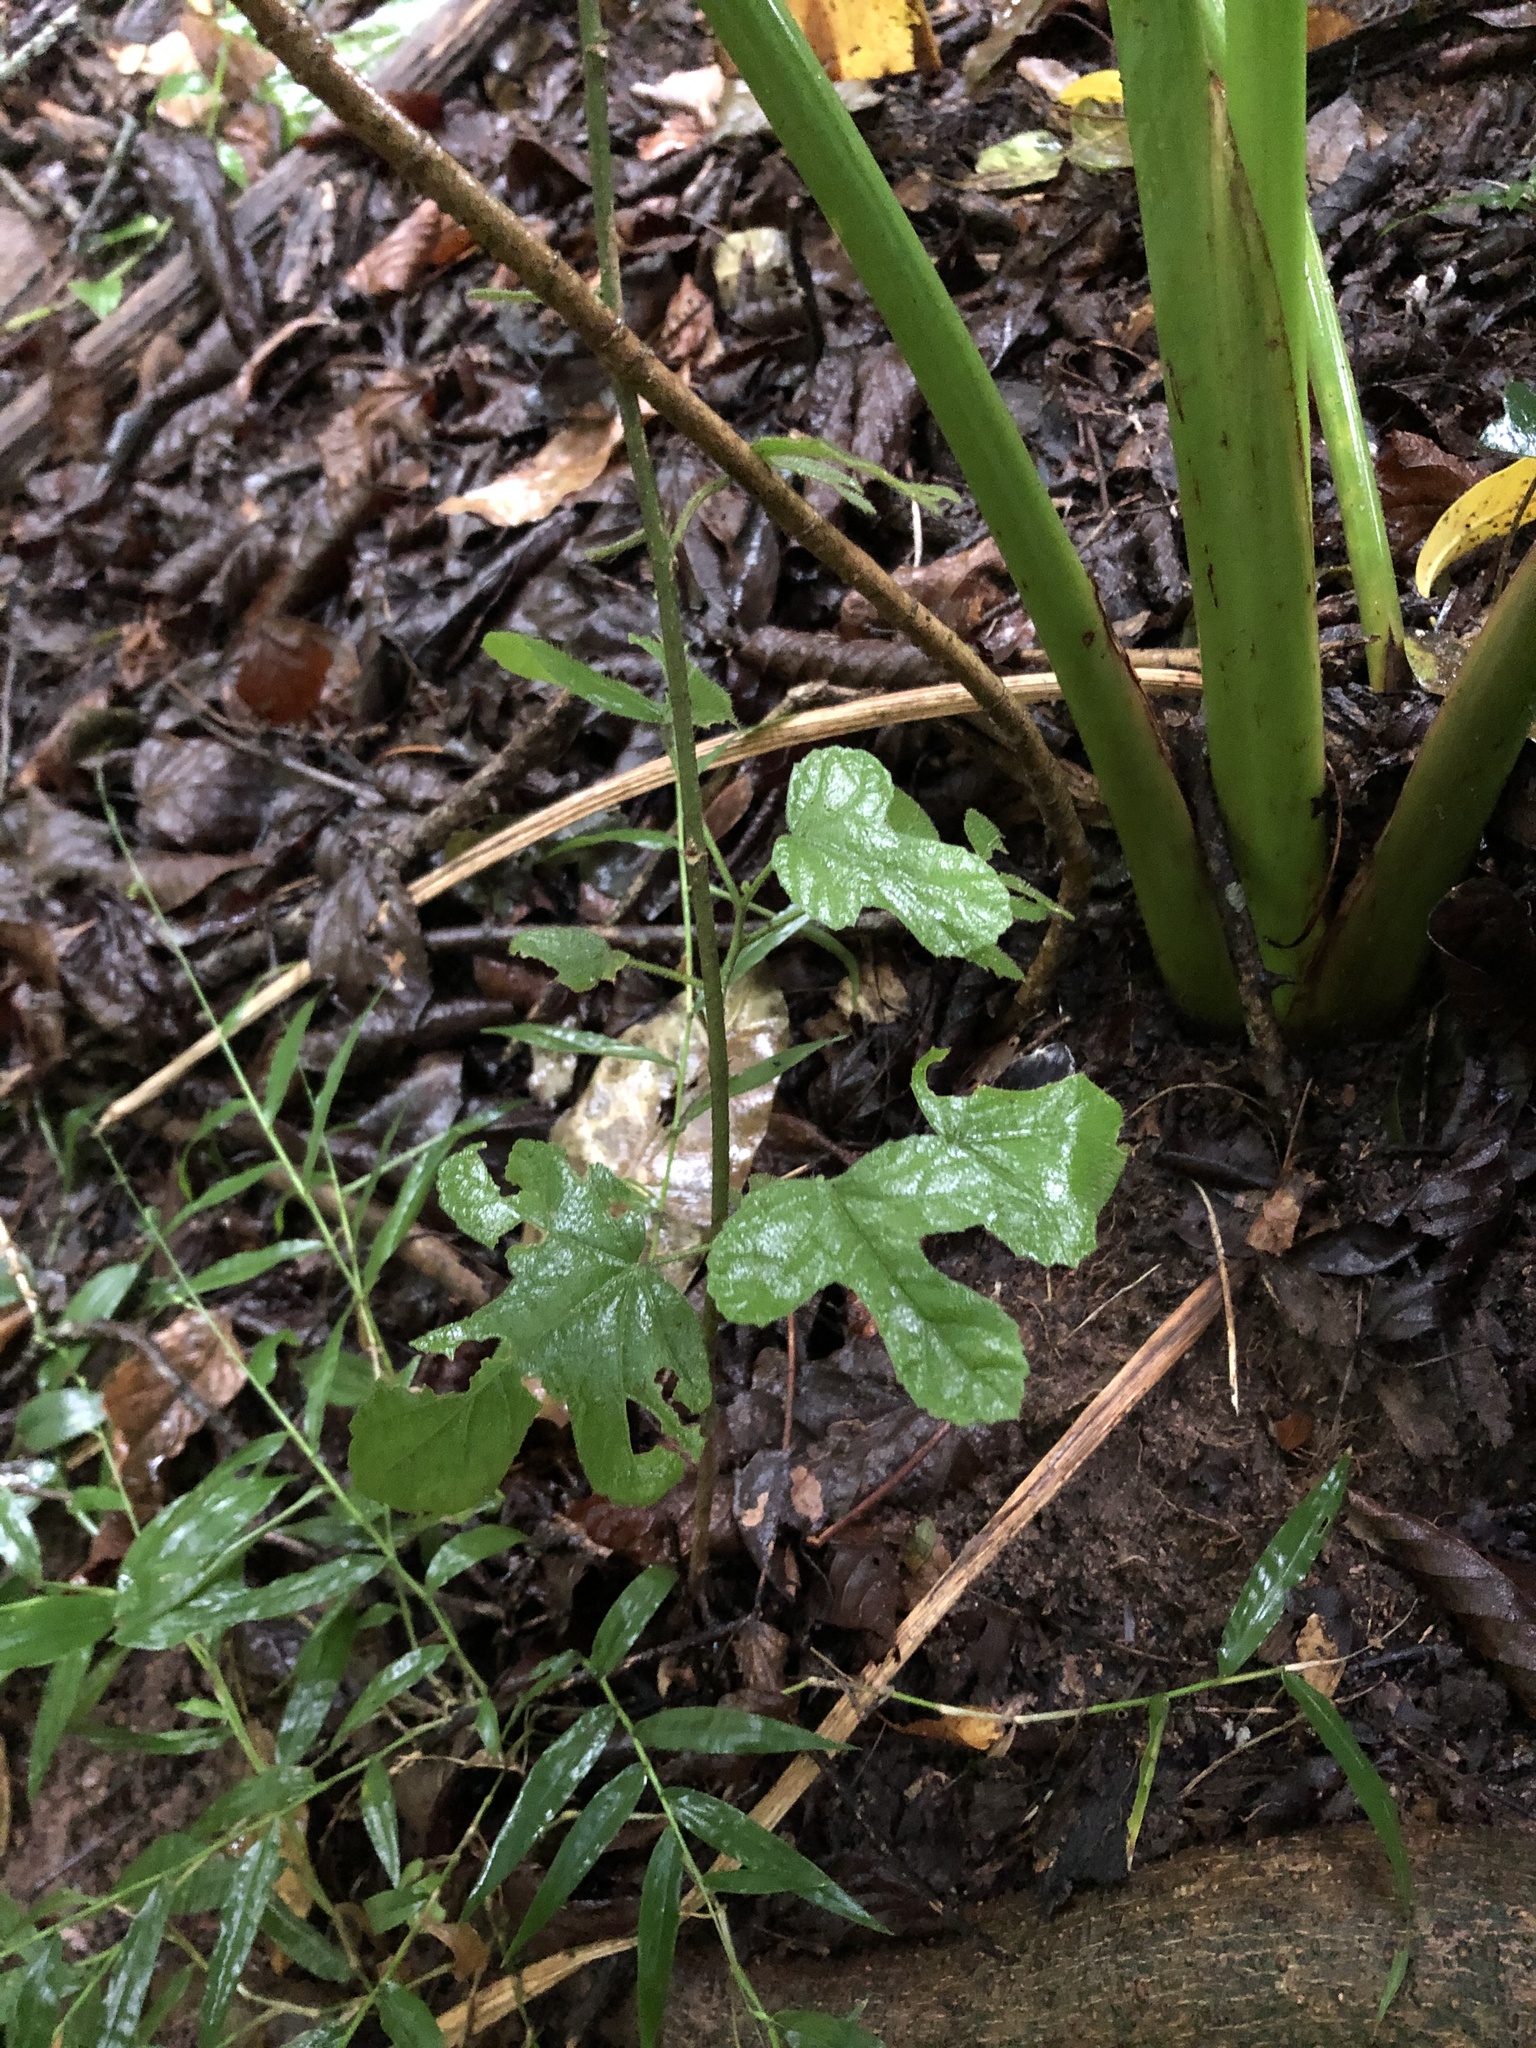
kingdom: Plantae
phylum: Tracheophyta
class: Magnoliopsida
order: Malvales
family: Malvaceae
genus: Hibiscus
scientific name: Hibiscus pedunculatus
